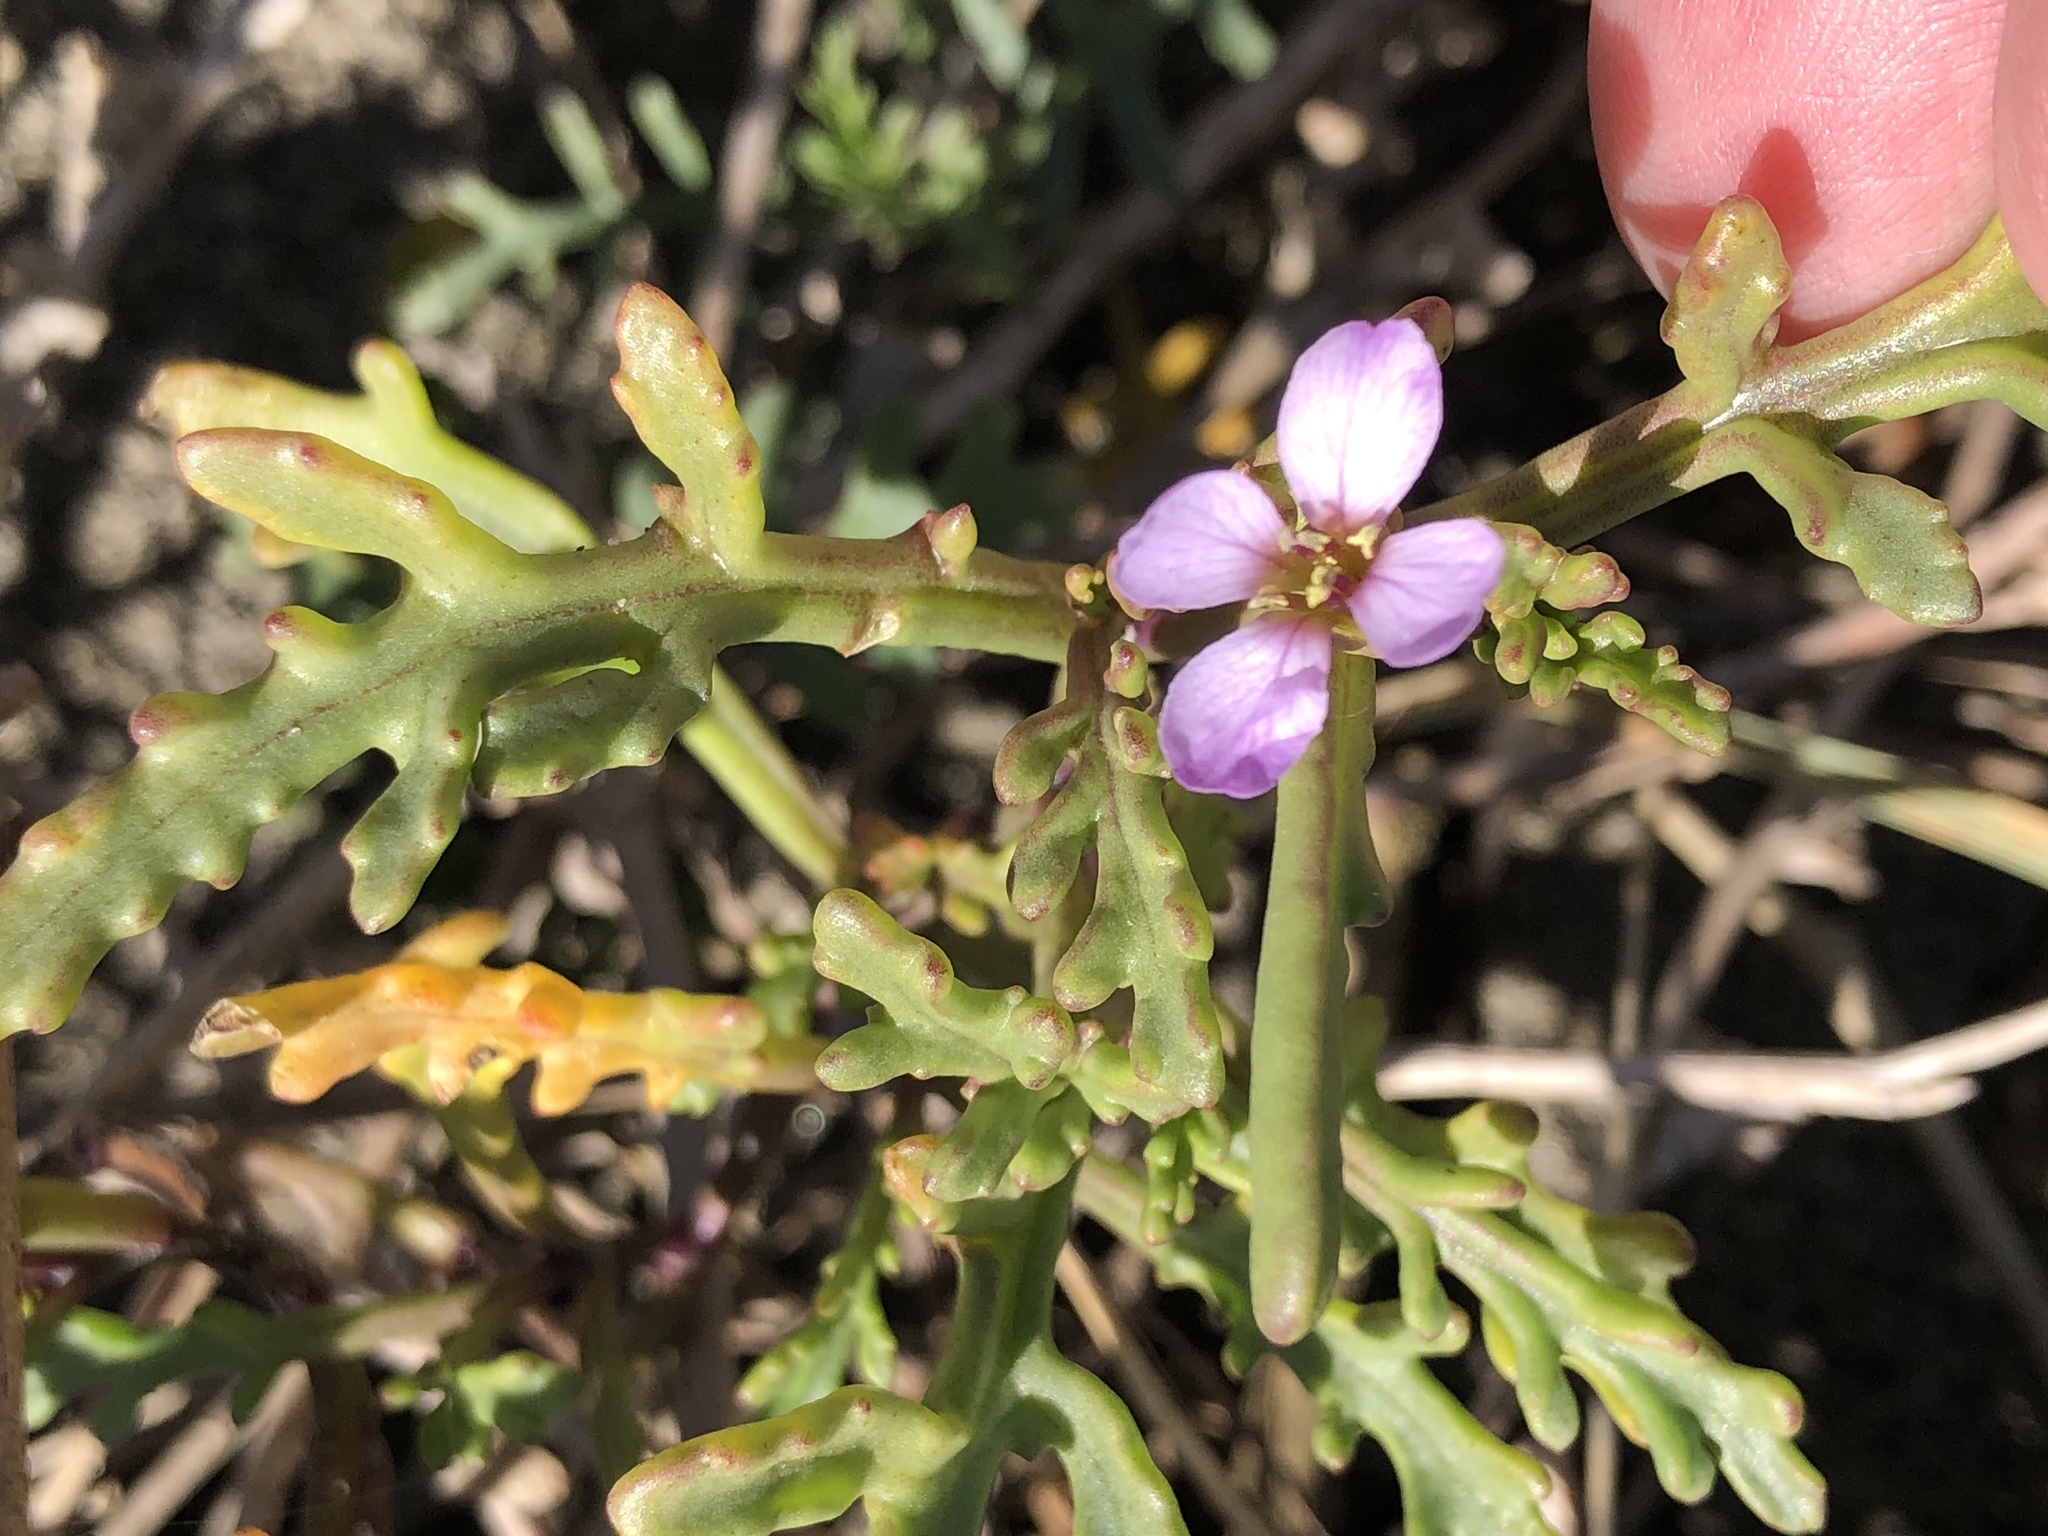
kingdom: Plantae
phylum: Tracheophyta
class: Magnoliopsida
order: Brassicales
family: Brassicaceae
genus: Cakile
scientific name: Cakile maritima
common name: Sea rocket
